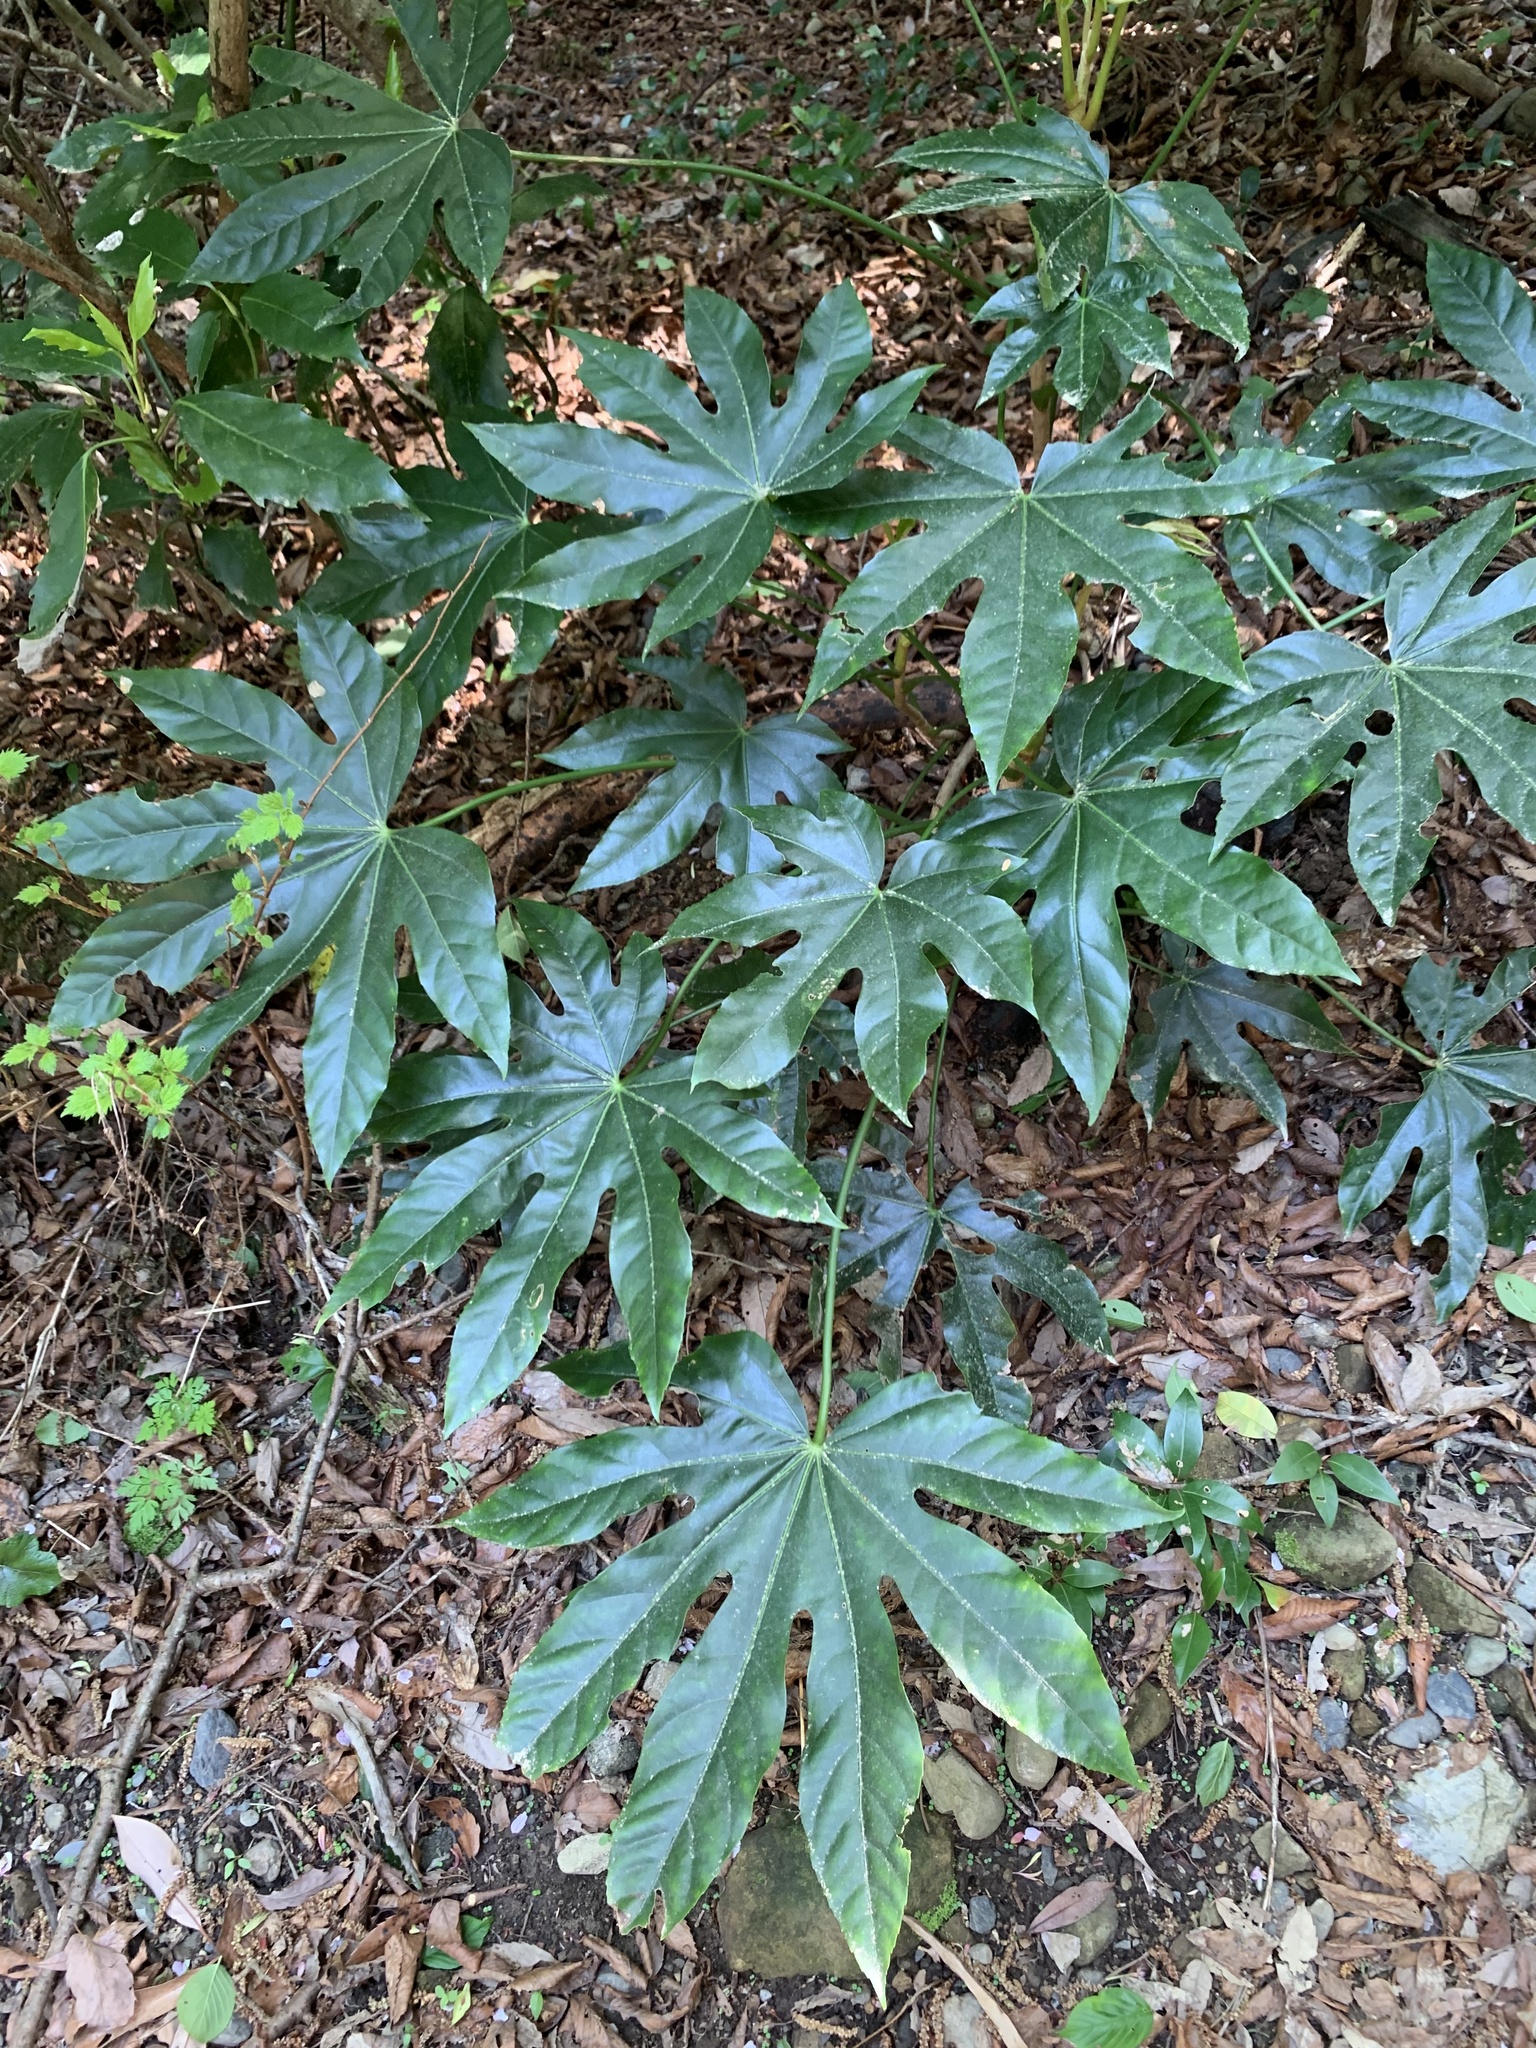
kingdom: Plantae
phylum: Tracheophyta
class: Magnoliopsida
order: Apiales
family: Araliaceae
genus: Fatsia
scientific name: Fatsia japonica
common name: Fatsia
